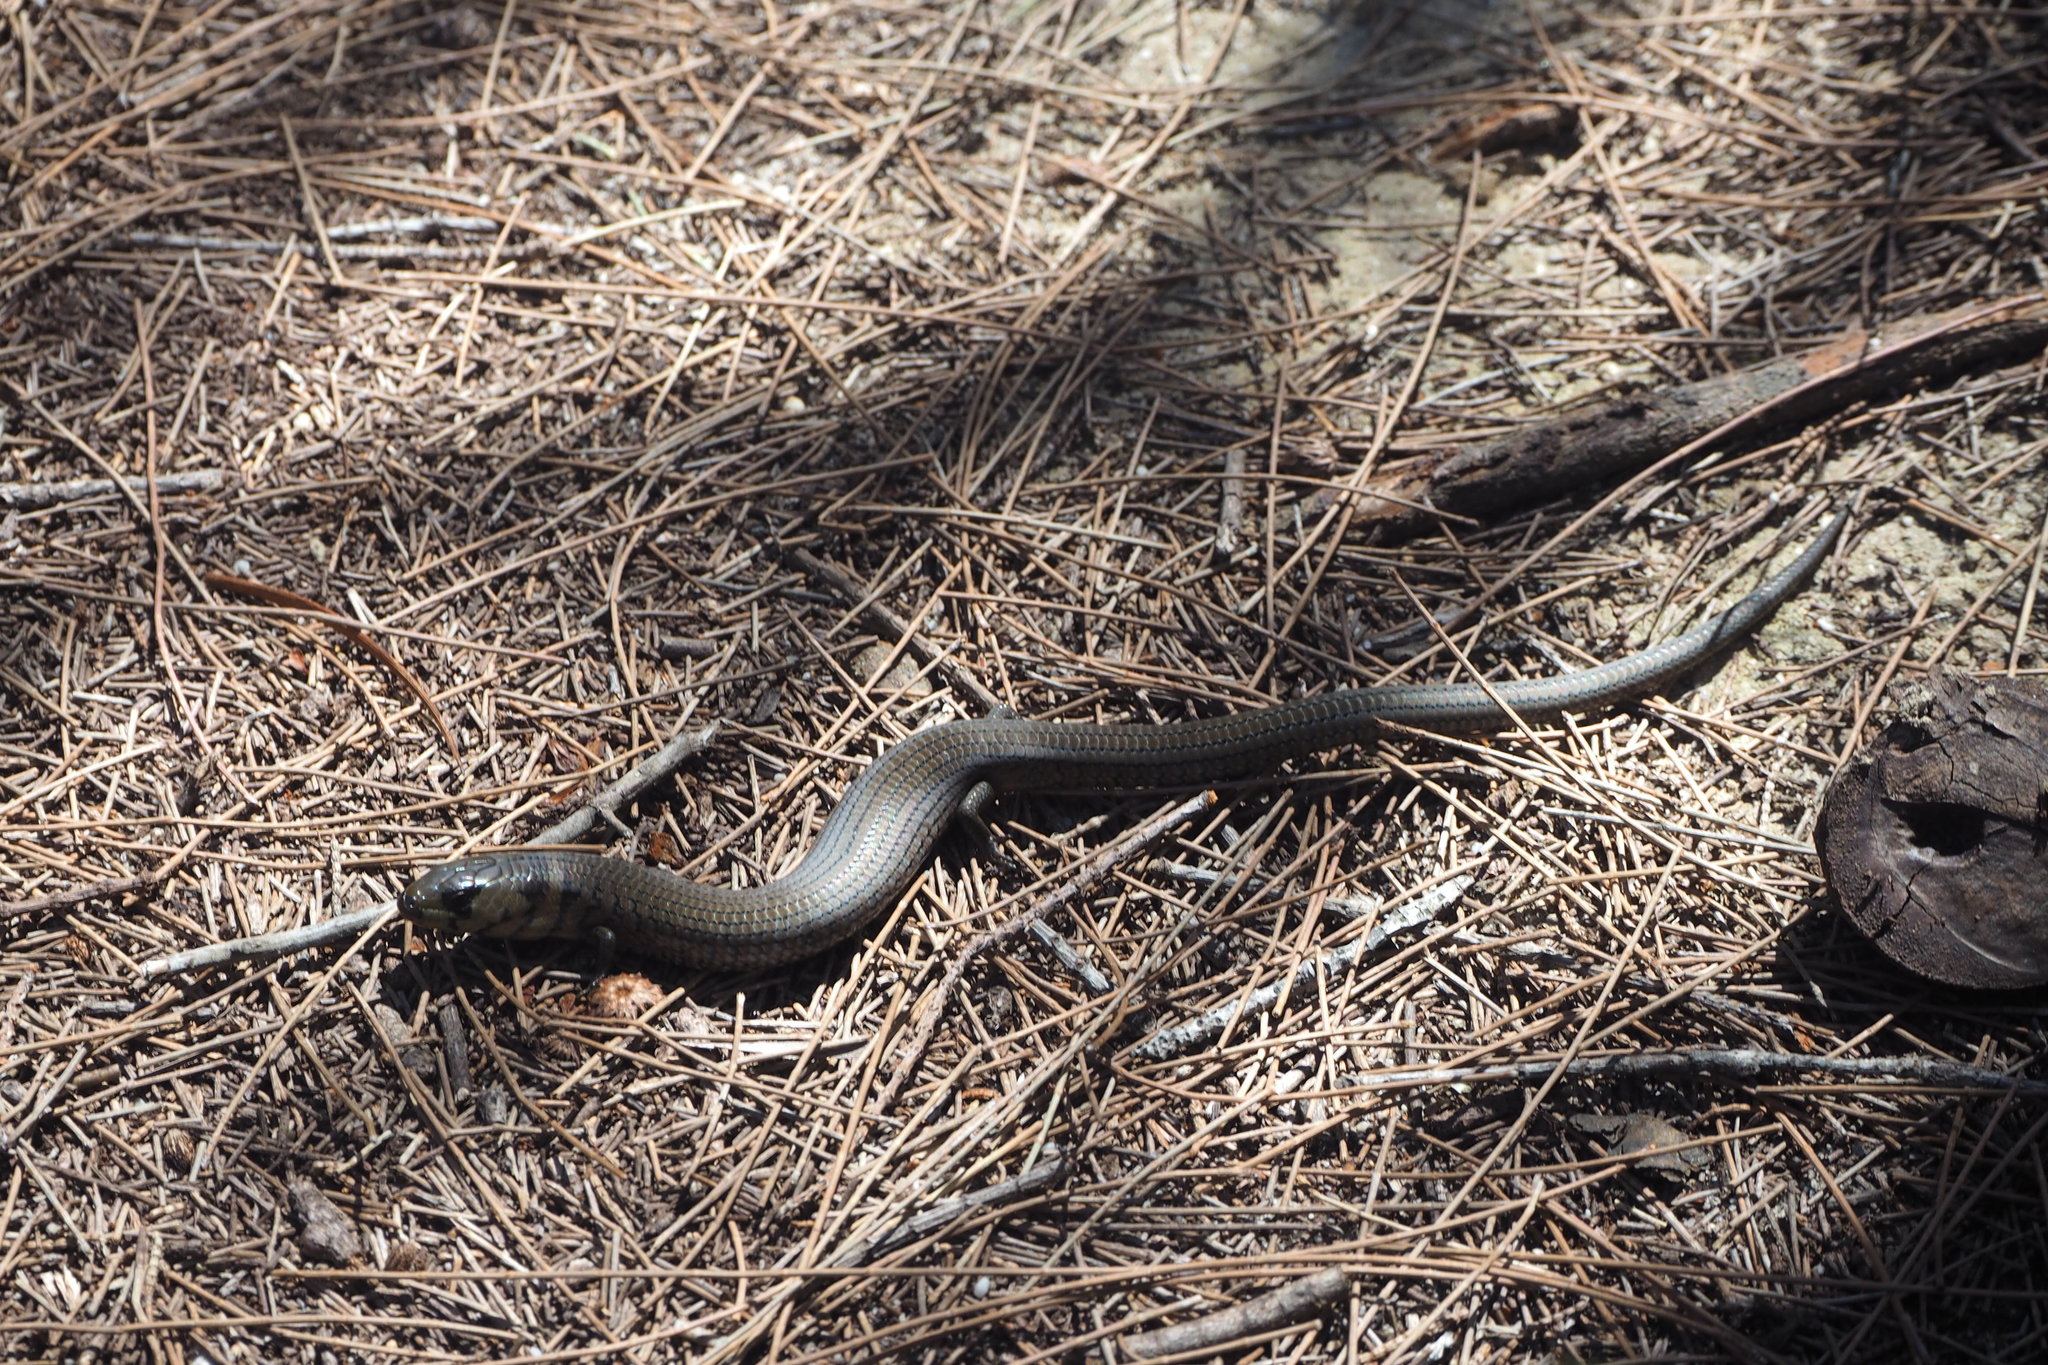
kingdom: Animalia
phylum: Chordata
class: Squamata
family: Scincidae
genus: Cyclodomorphus
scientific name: Cyclodomorphus michaeli
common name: Coastal she-oak slender bluetongue
